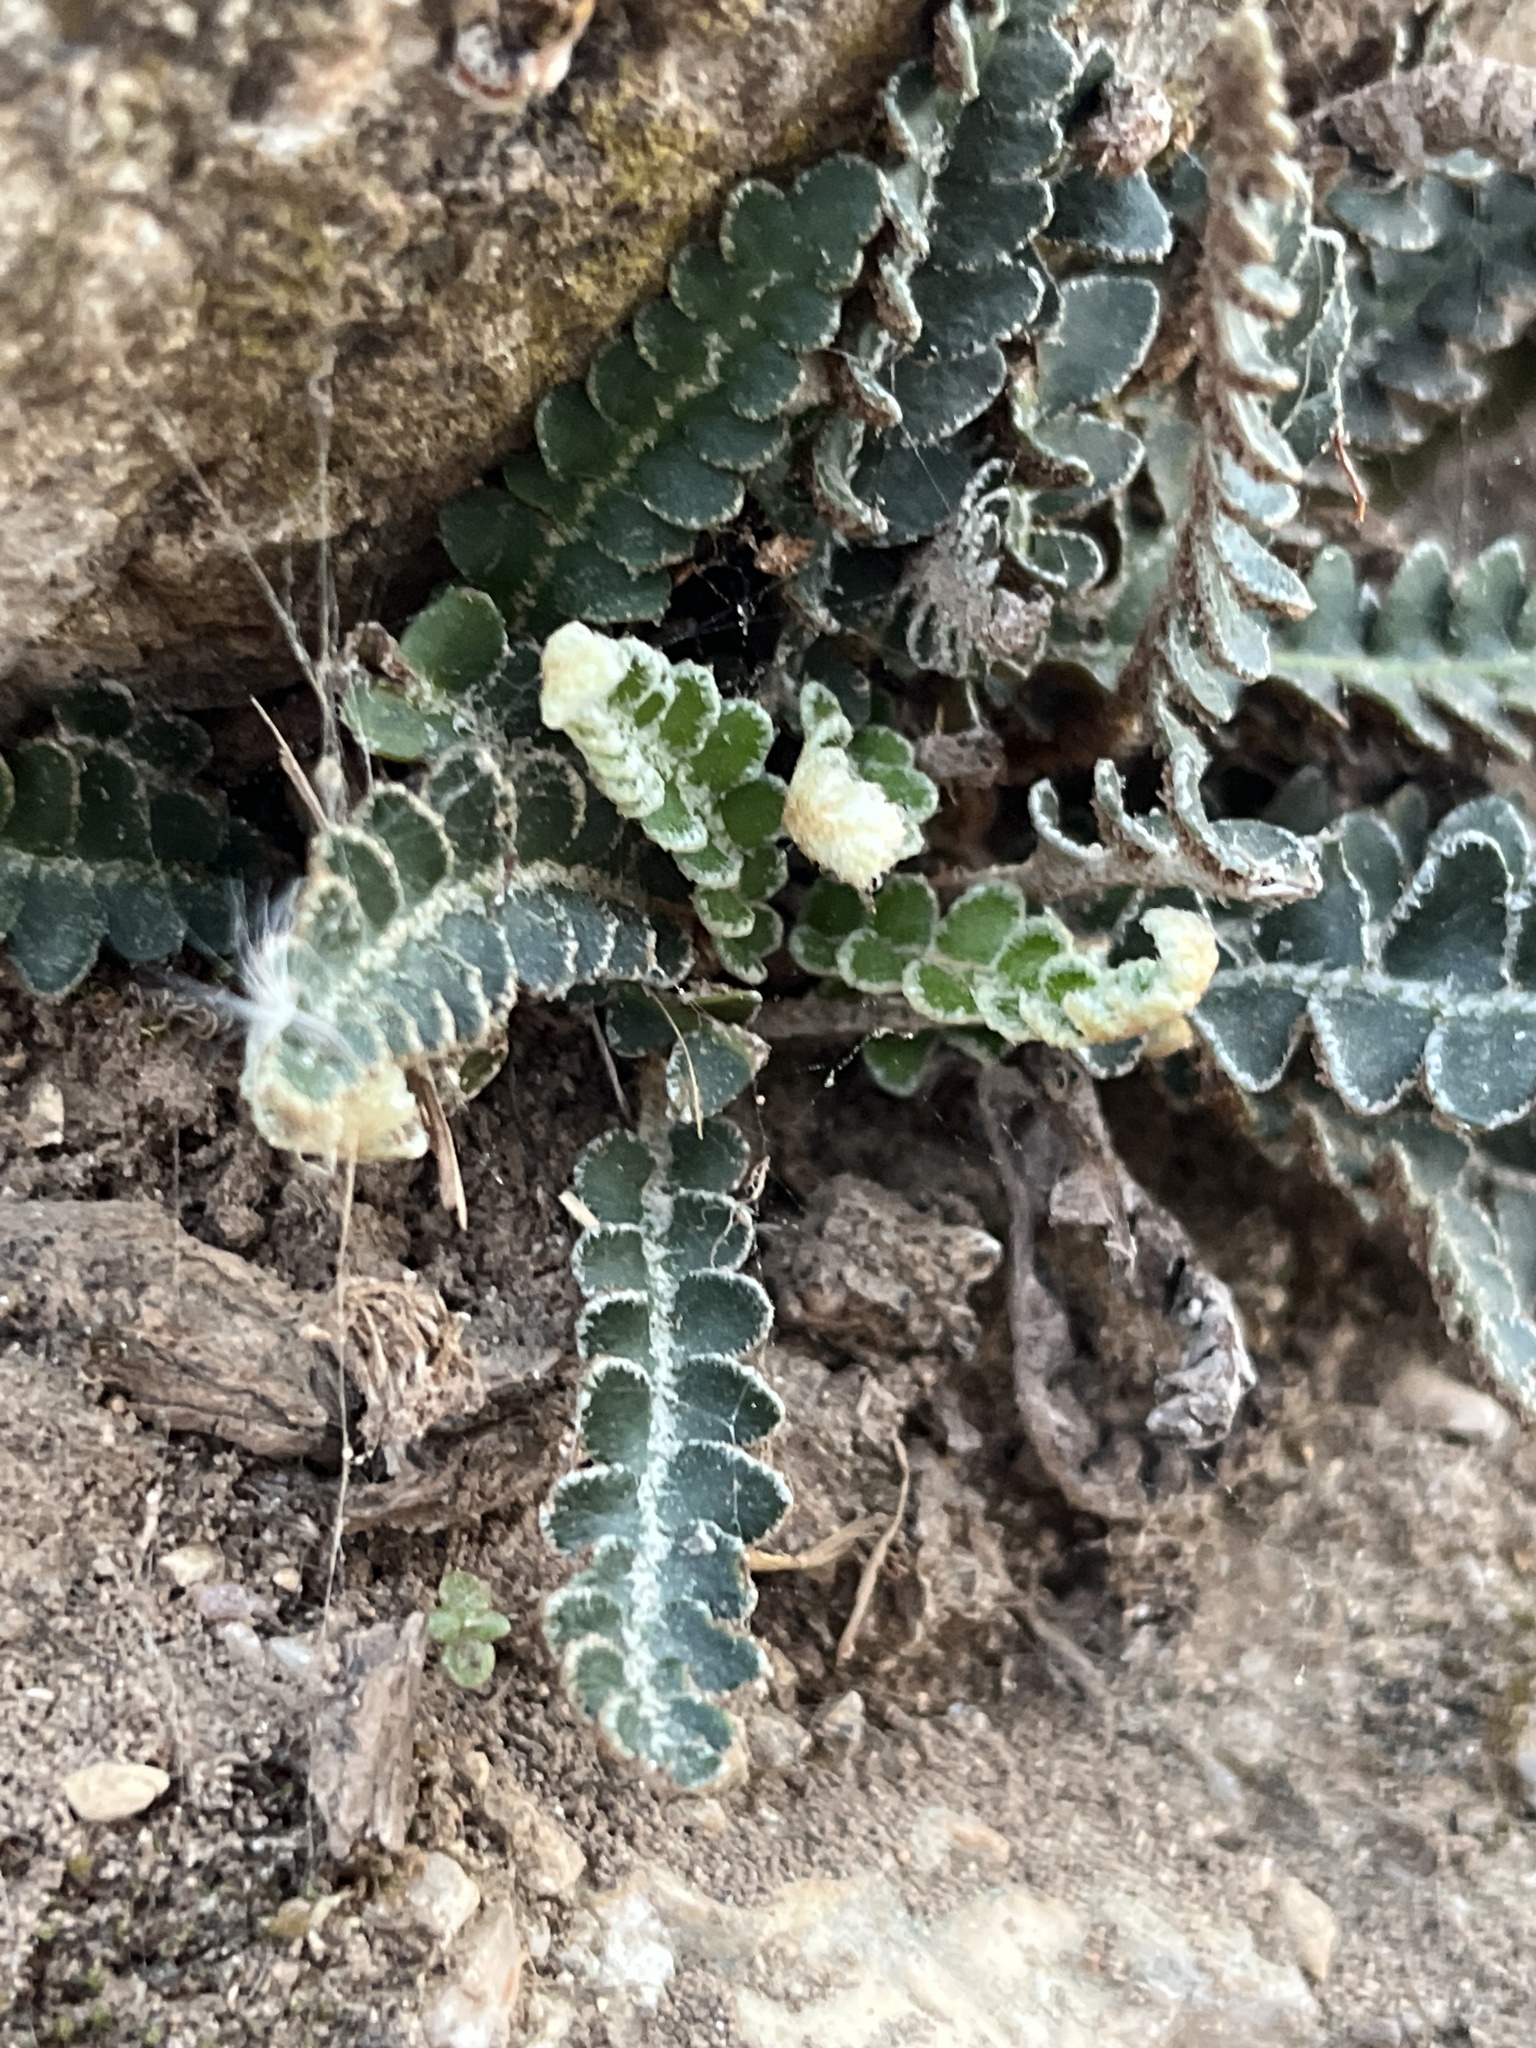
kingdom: Plantae
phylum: Tracheophyta
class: Polypodiopsida
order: Polypodiales
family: Aspleniaceae
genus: Asplenium
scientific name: Asplenium ceterach
